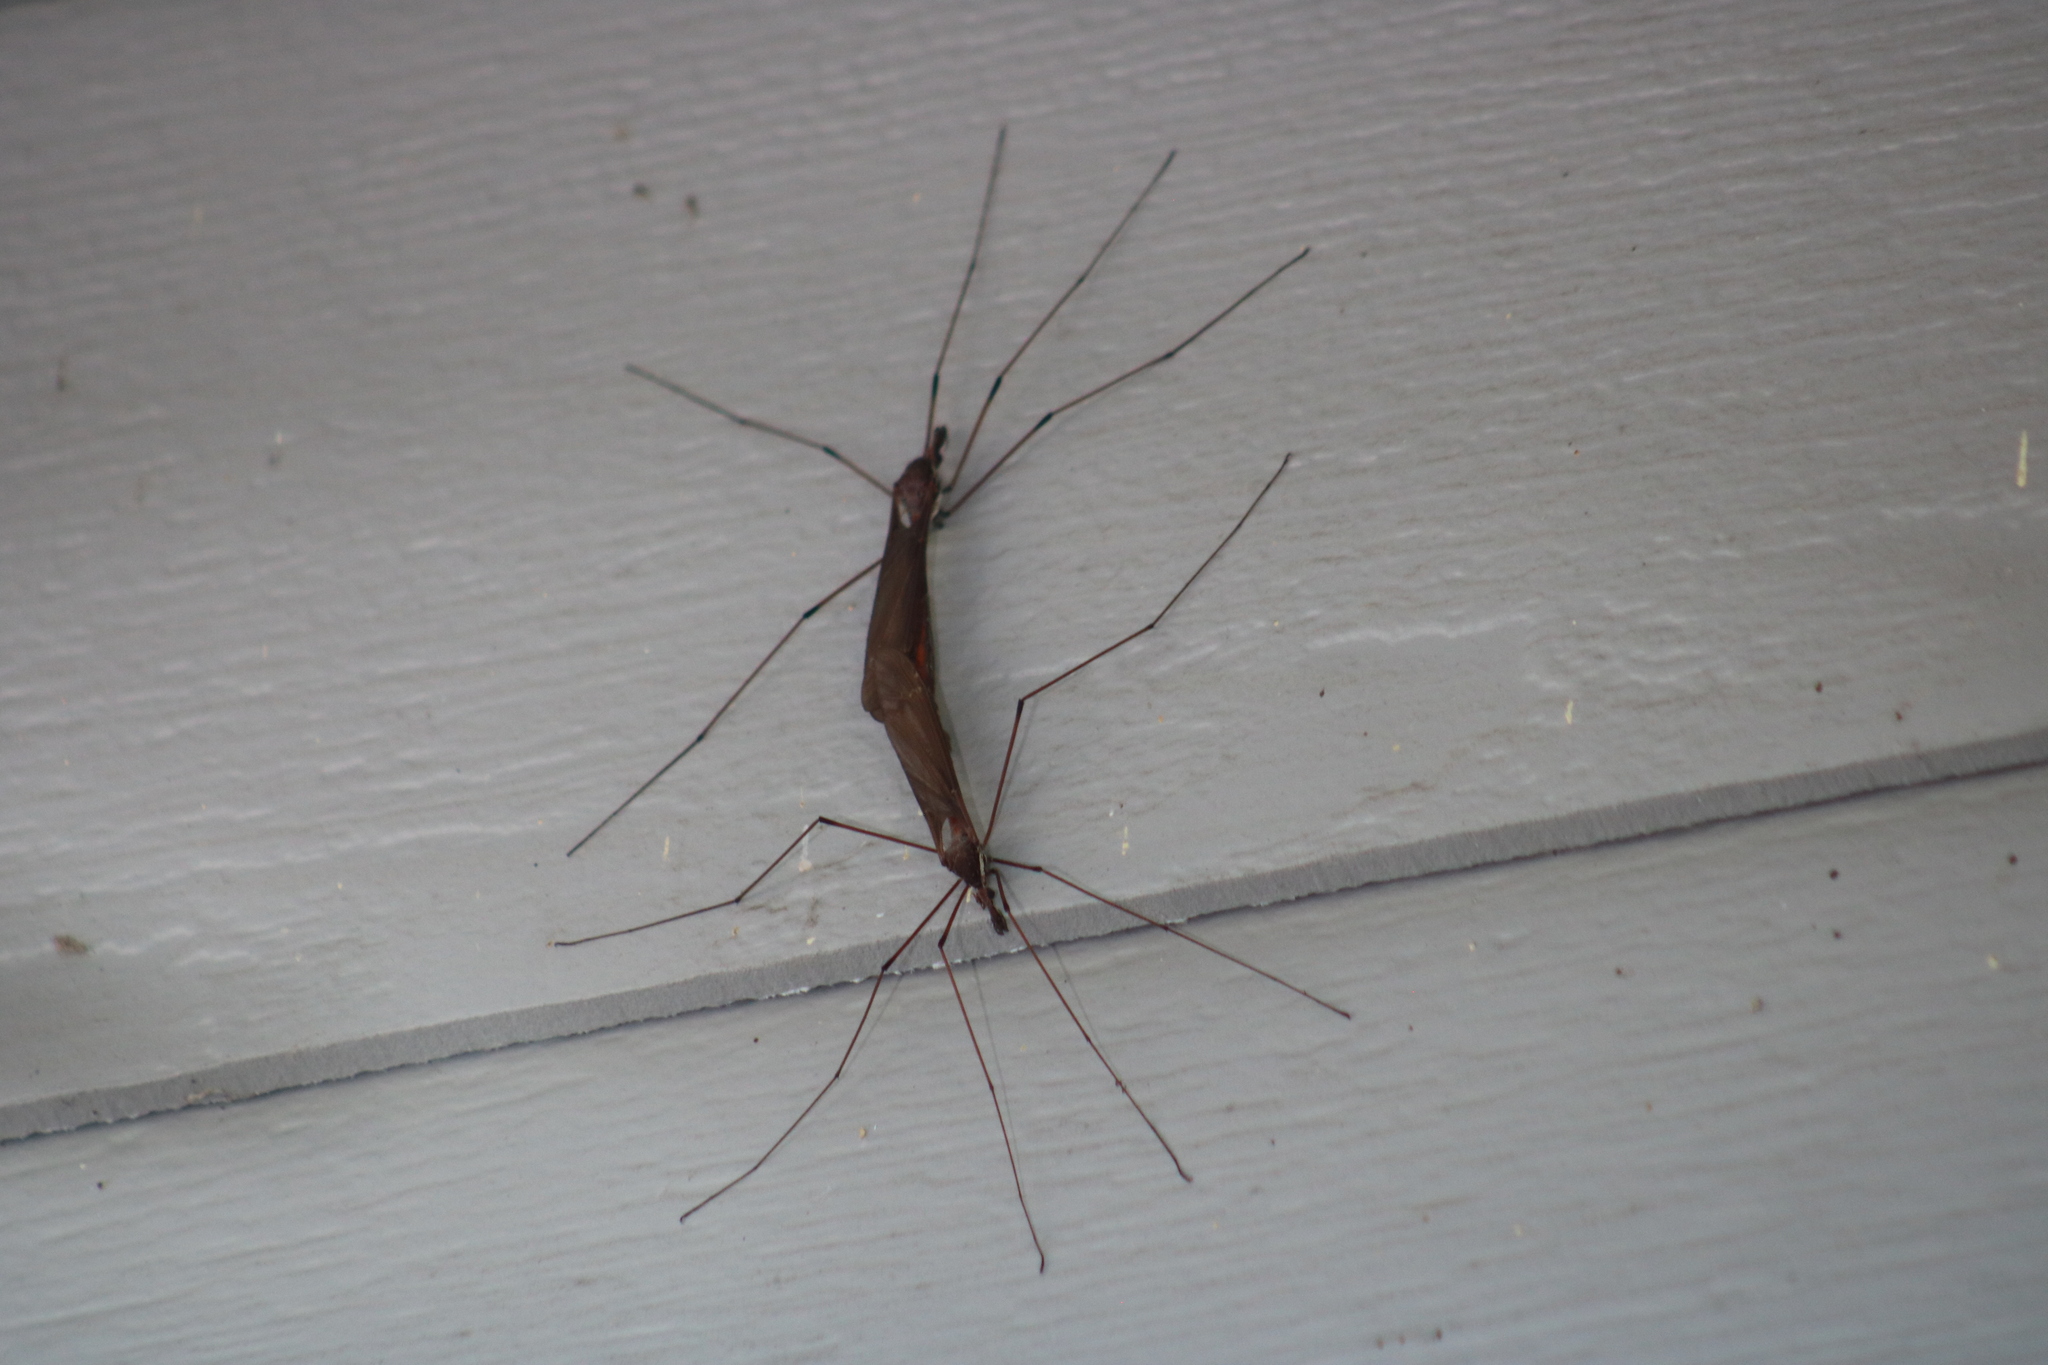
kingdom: Animalia
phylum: Arthropoda
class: Insecta
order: Diptera
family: Tipulidae
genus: Holorusia
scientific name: Holorusia hespera
